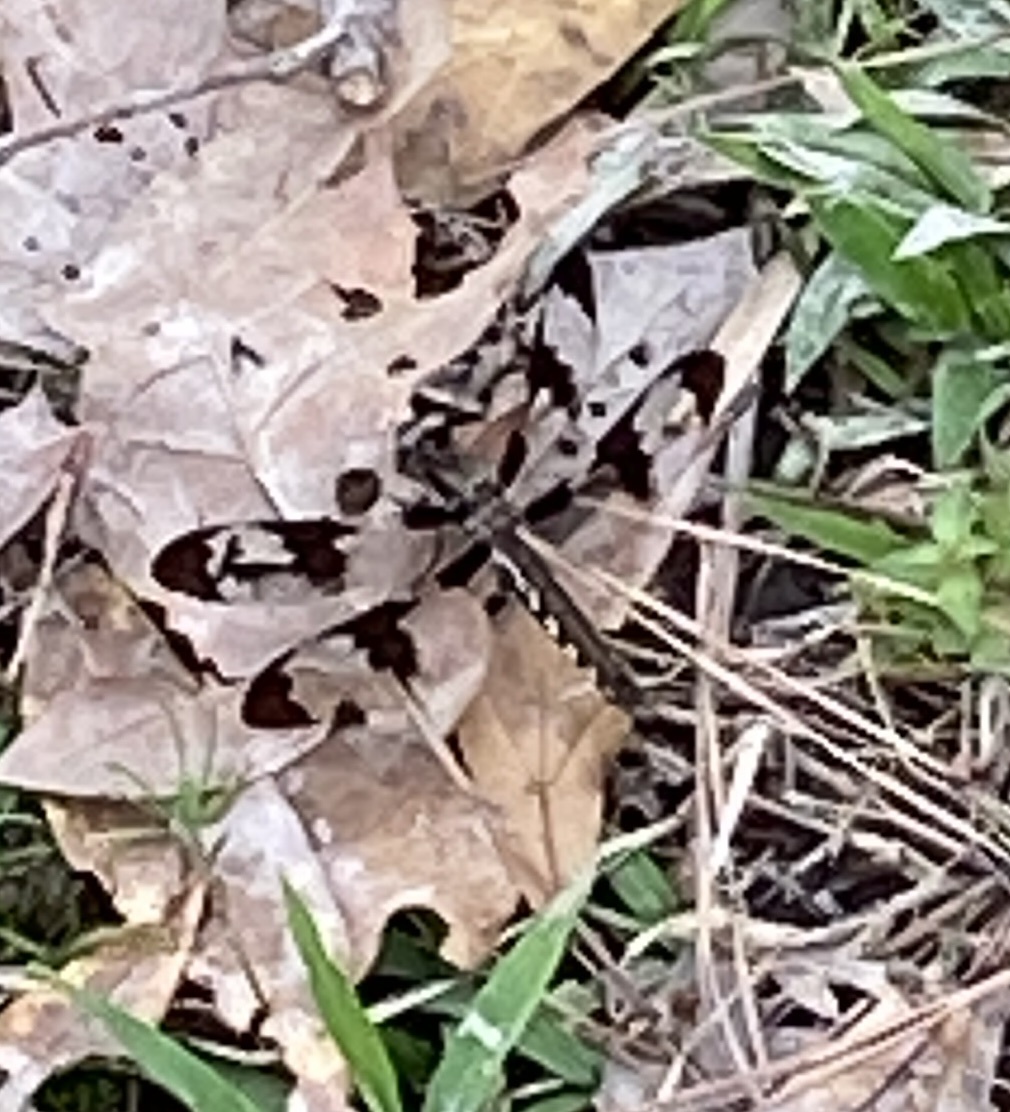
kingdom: Animalia
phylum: Arthropoda
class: Insecta
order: Odonata
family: Libellulidae
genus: Plathemis
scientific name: Plathemis lydia
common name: Common whitetail
